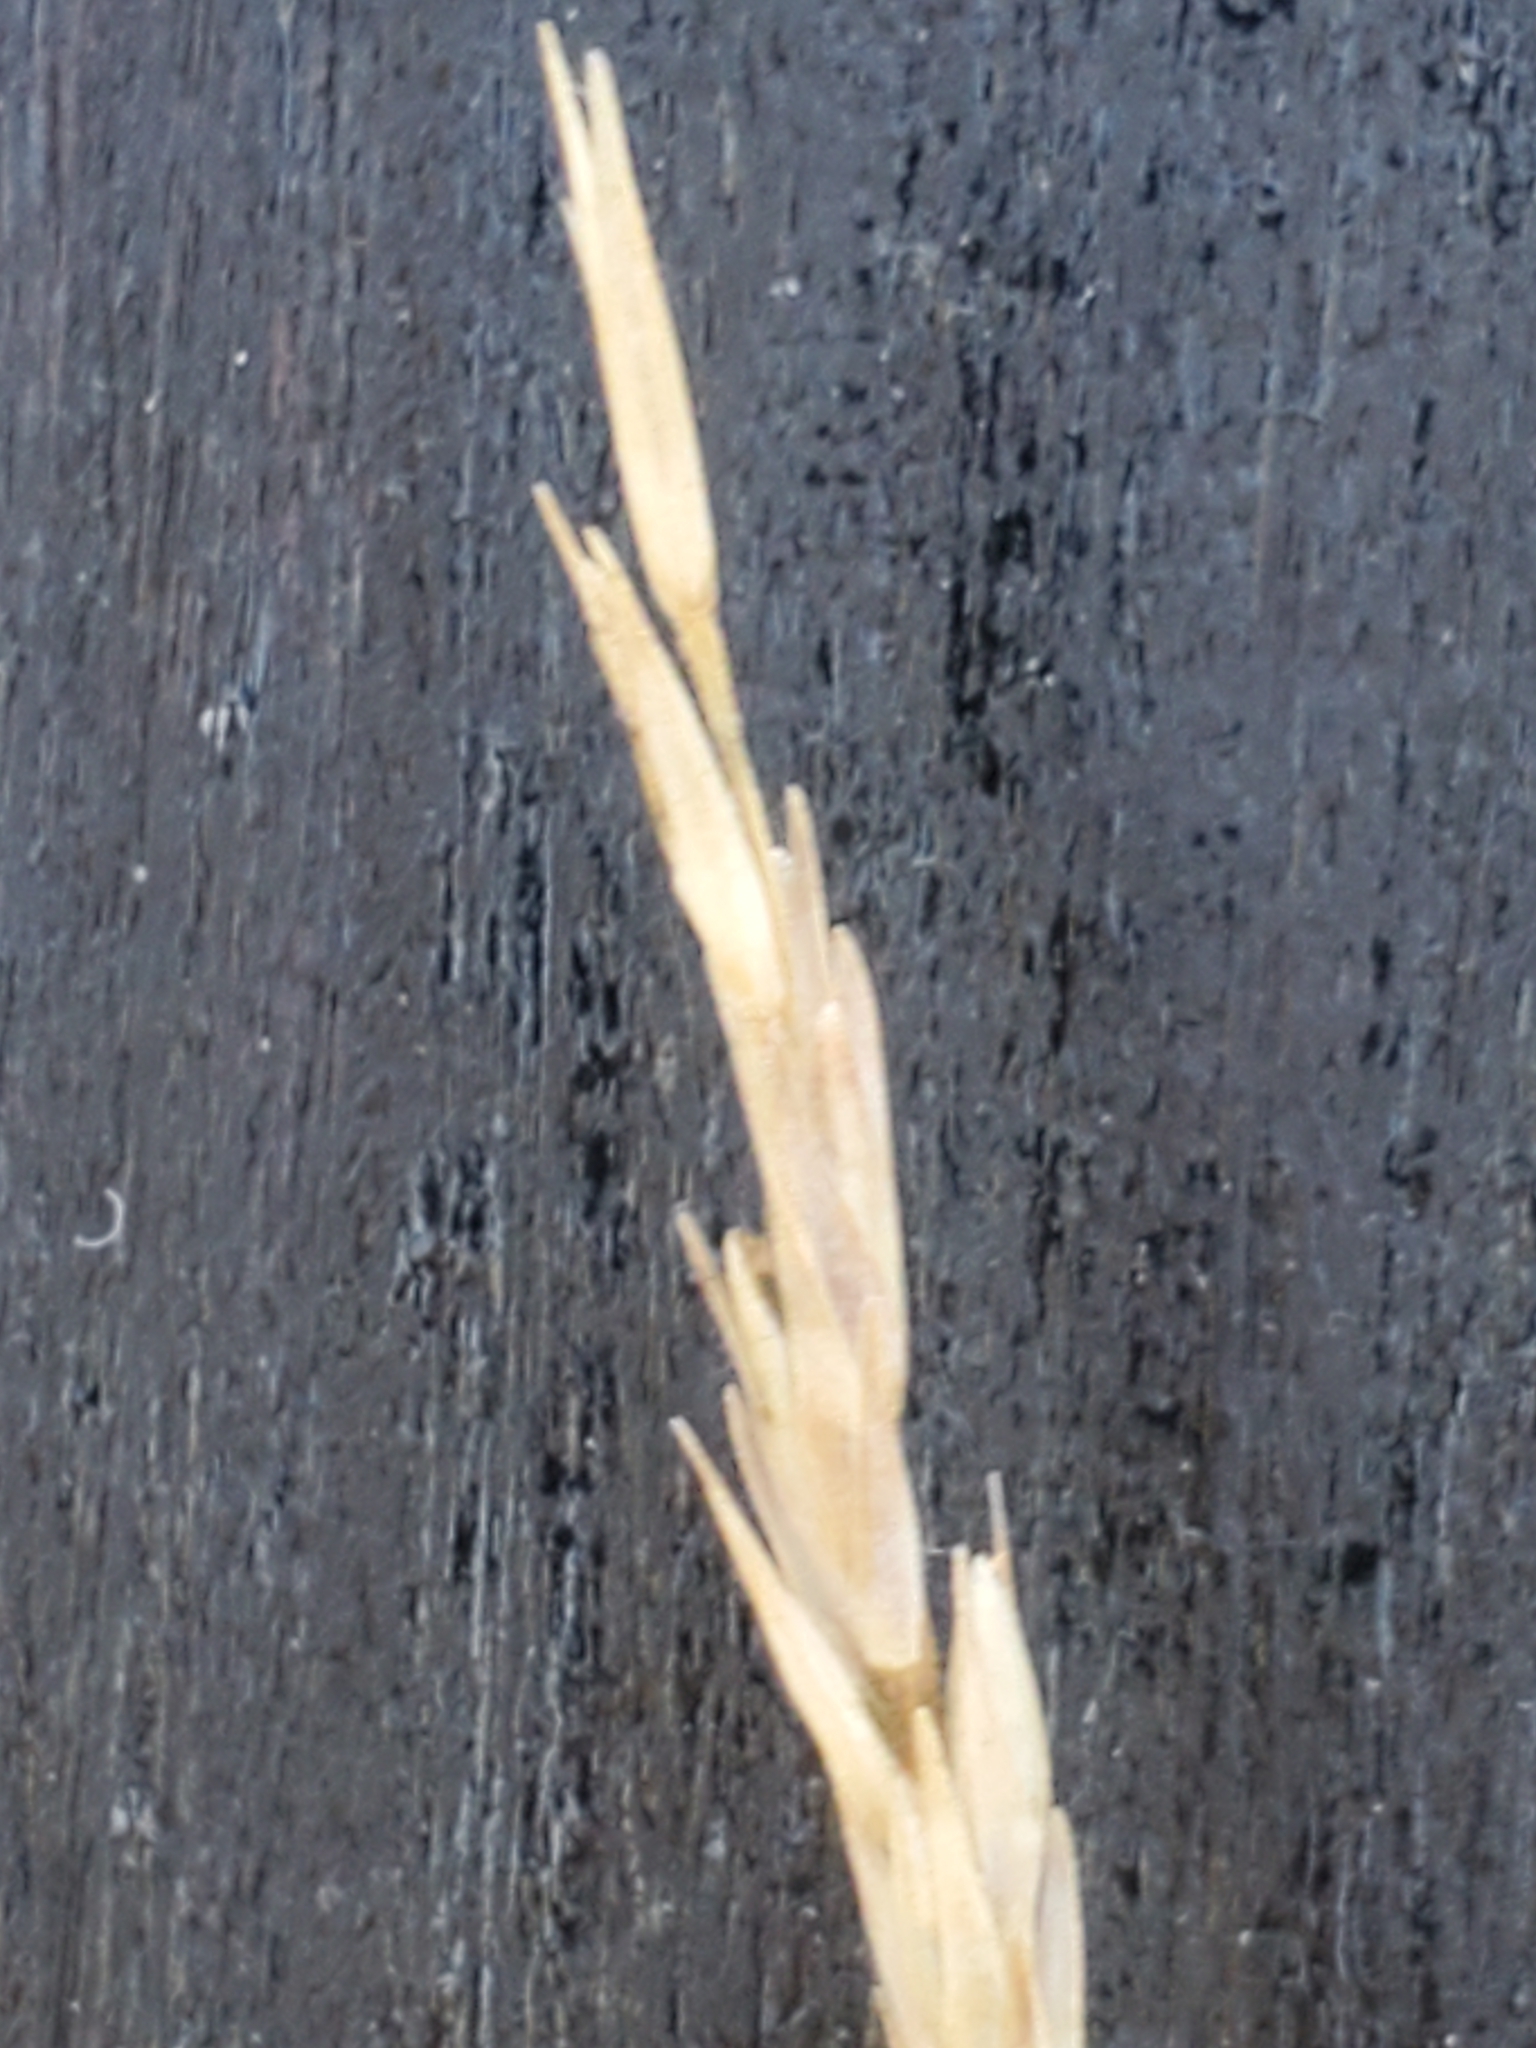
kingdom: Plantae
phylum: Tracheophyta
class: Liliopsida
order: Poales
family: Poaceae
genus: Sporobolus
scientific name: Sporobolus compositus
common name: Rough dropseed
